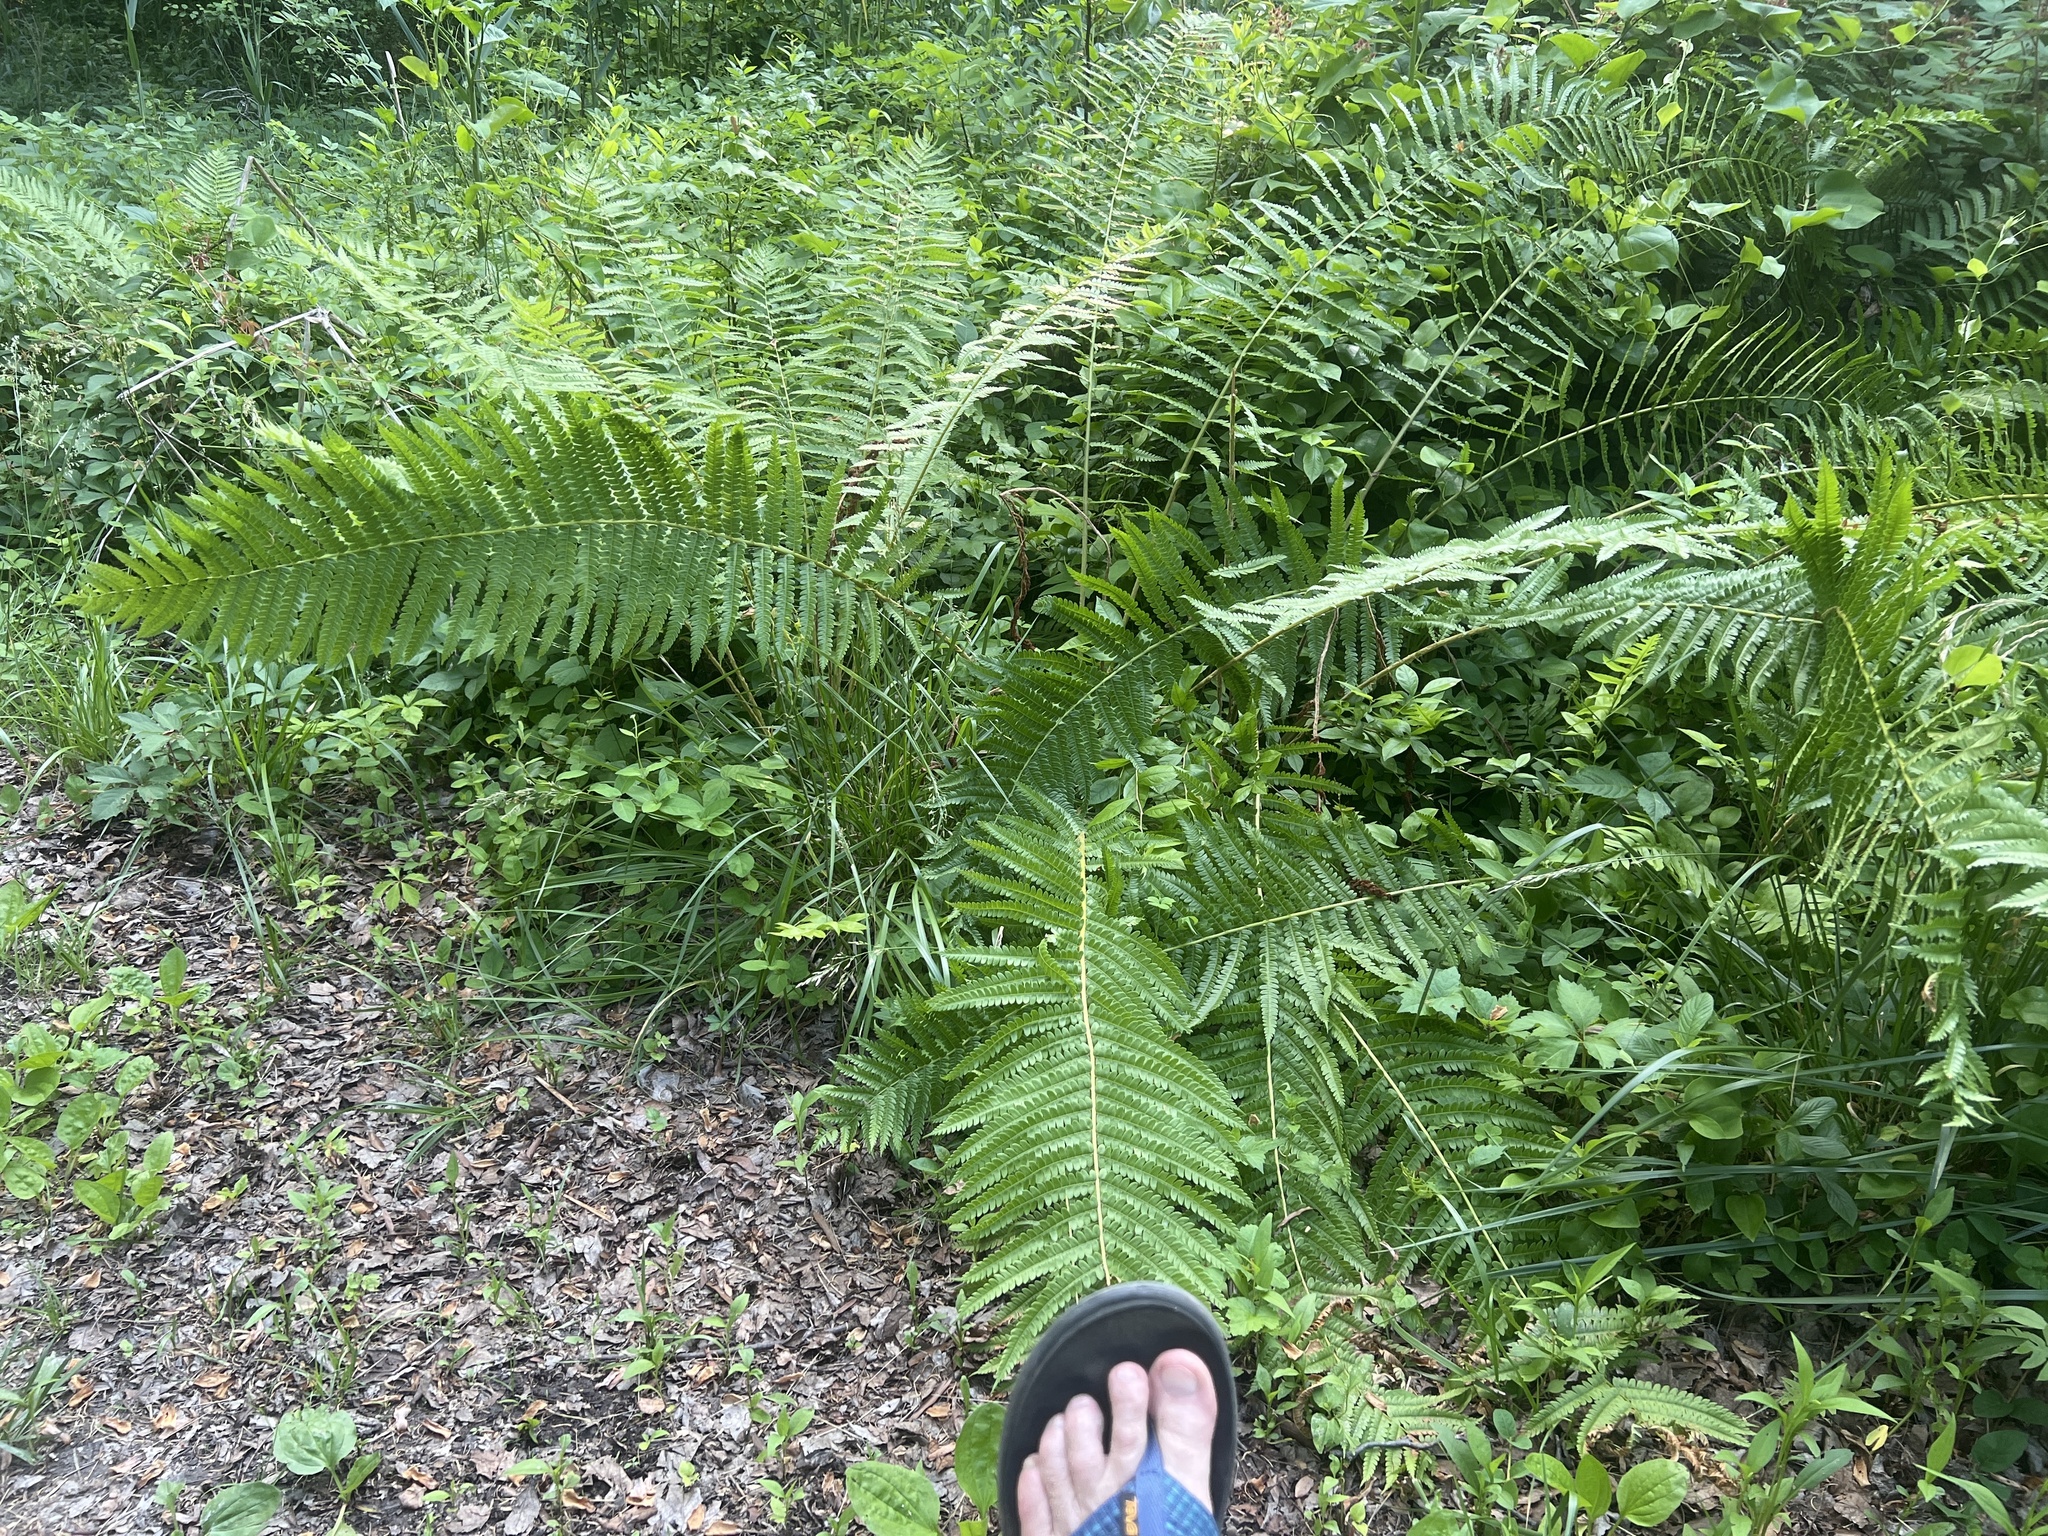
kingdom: Plantae
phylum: Tracheophyta
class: Polypodiopsida
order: Osmundales
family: Osmundaceae
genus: Osmundastrum
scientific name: Osmundastrum cinnamomeum
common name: Cinnamon fern
